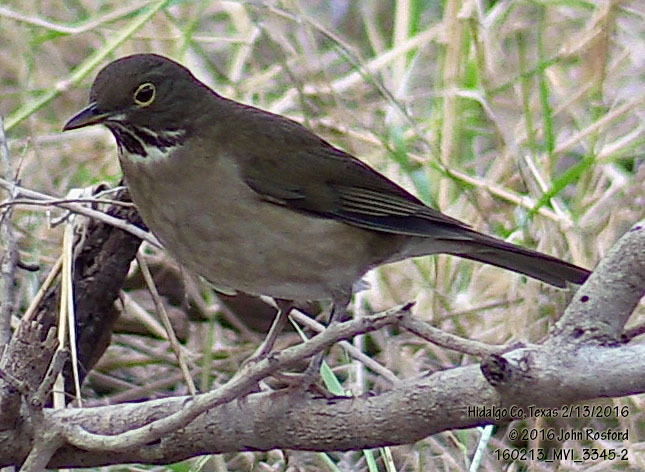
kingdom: Animalia
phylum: Chordata
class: Aves
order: Passeriformes
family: Turdidae
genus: Turdus
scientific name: Turdus assimilis
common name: White-throated thrush
